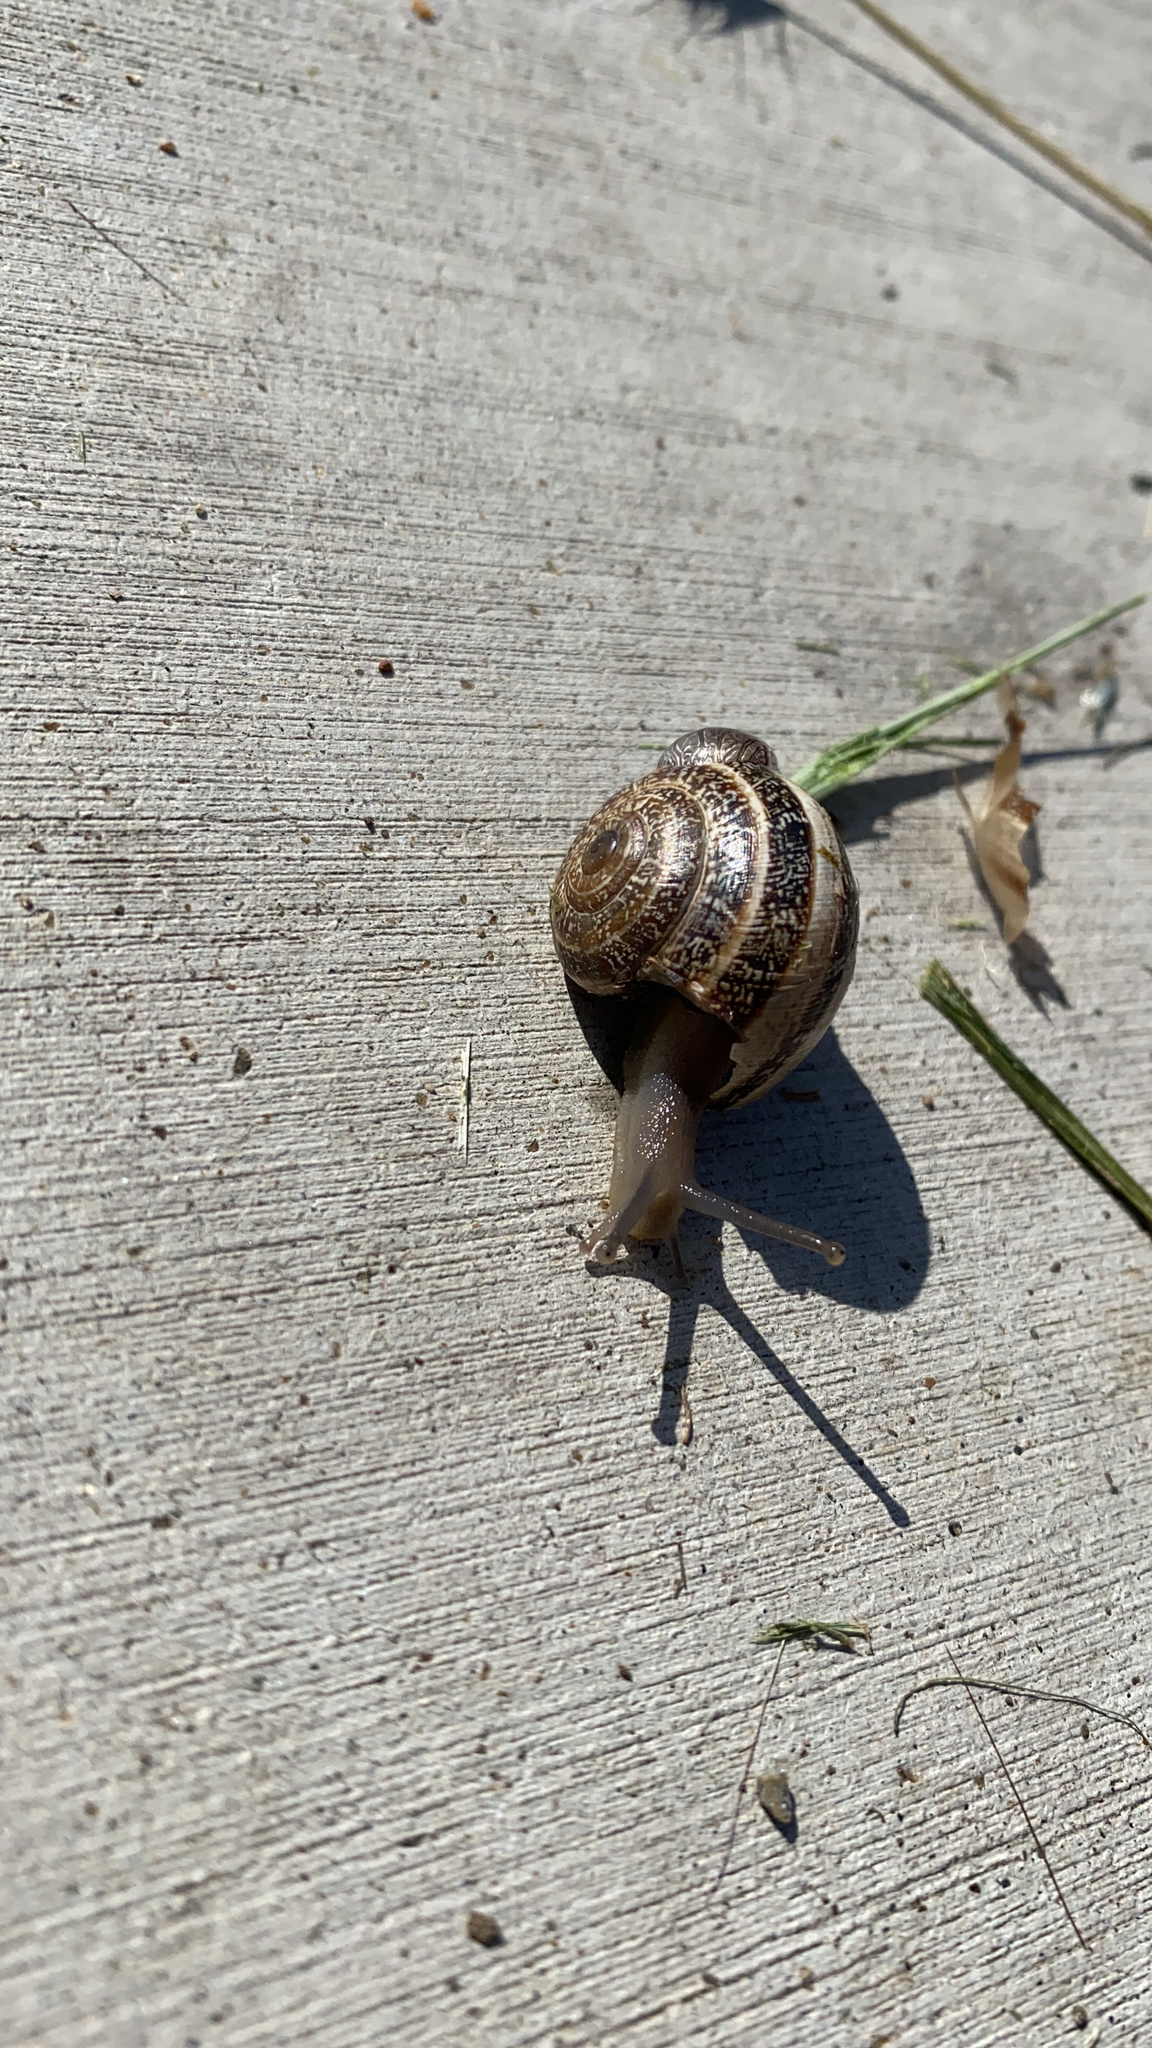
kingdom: Animalia
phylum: Mollusca
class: Gastropoda
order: Stylommatophora
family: Helicidae
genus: Otala
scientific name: Otala lactea
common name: Milk snail
